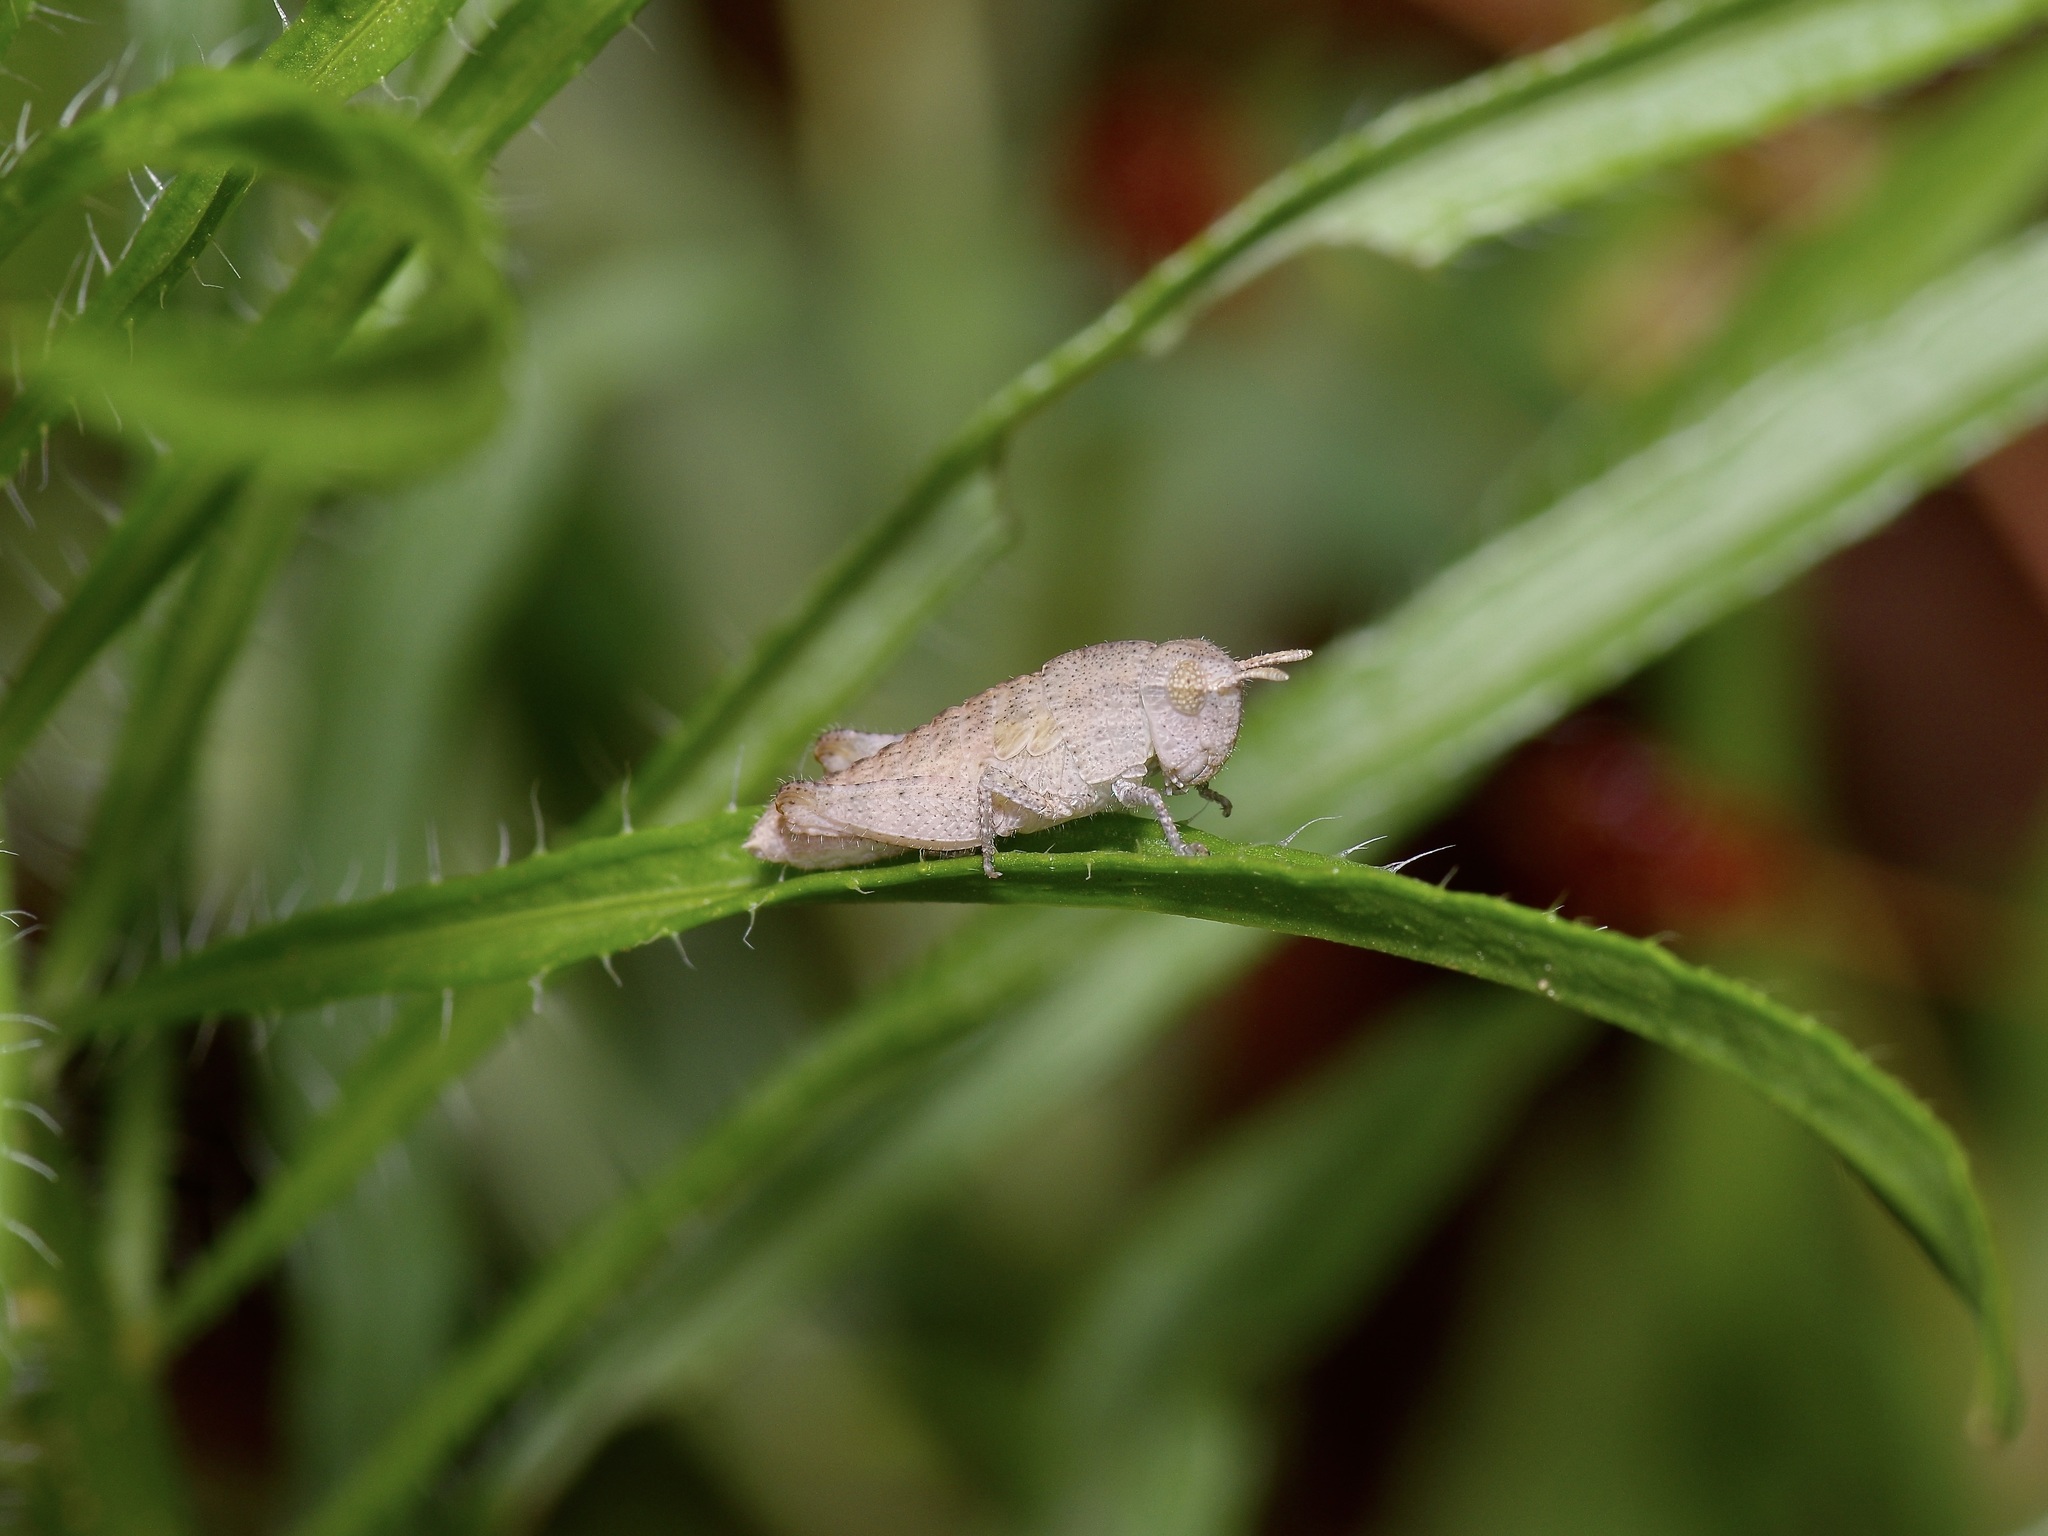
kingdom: Animalia
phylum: Arthropoda
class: Insecta
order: Orthoptera
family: Acrididae
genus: Chortophaga
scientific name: Chortophaga viridifasciata
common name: Green-striped grasshopper
